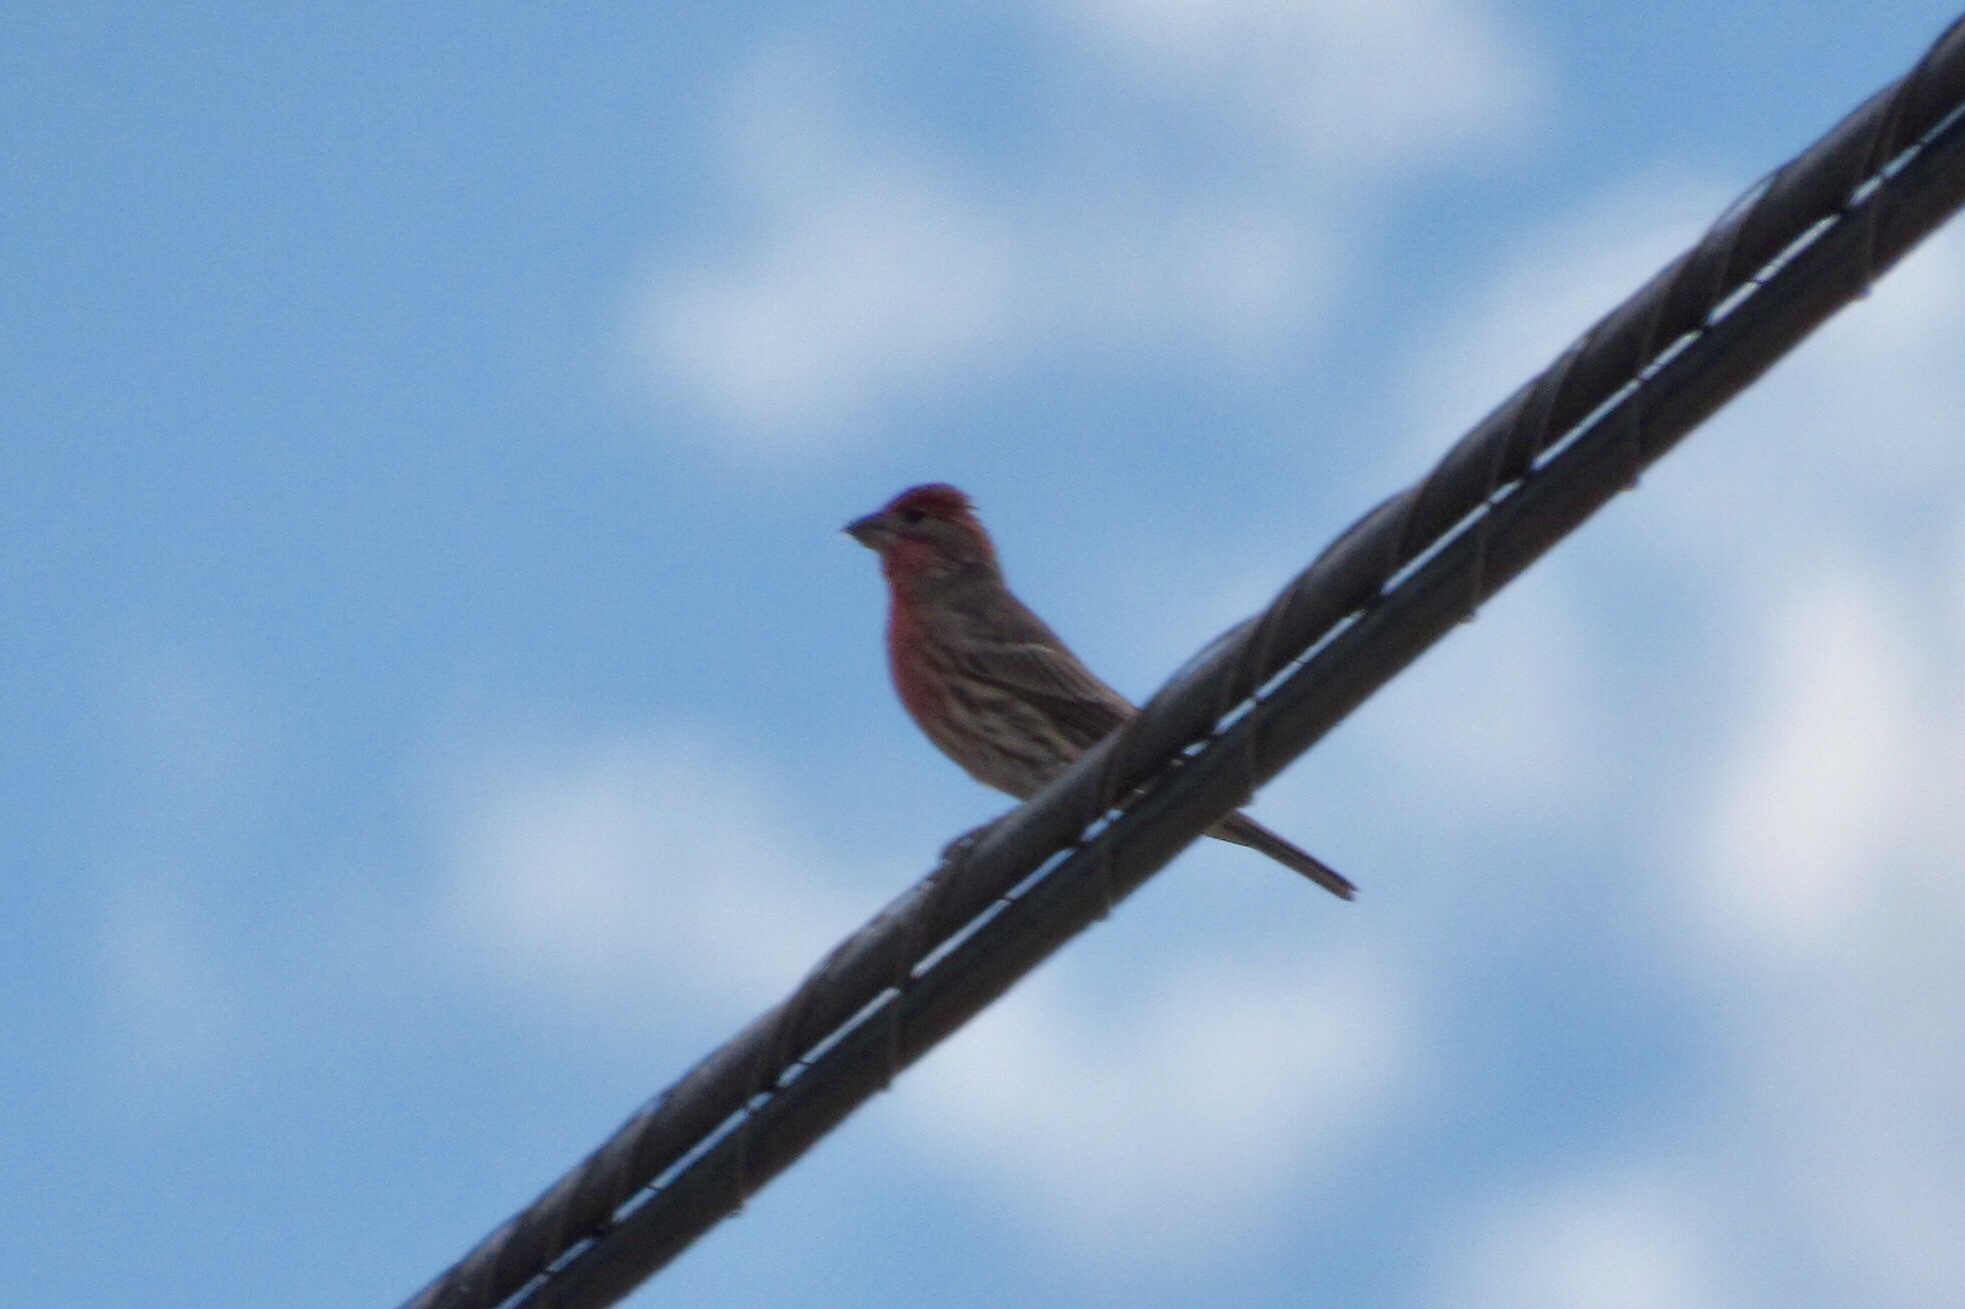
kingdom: Animalia
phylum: Chordata
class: Aves
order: Passeriformes
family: Fringillidae
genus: Haemorhous
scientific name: Haemorhous mexicanus
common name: House finch
